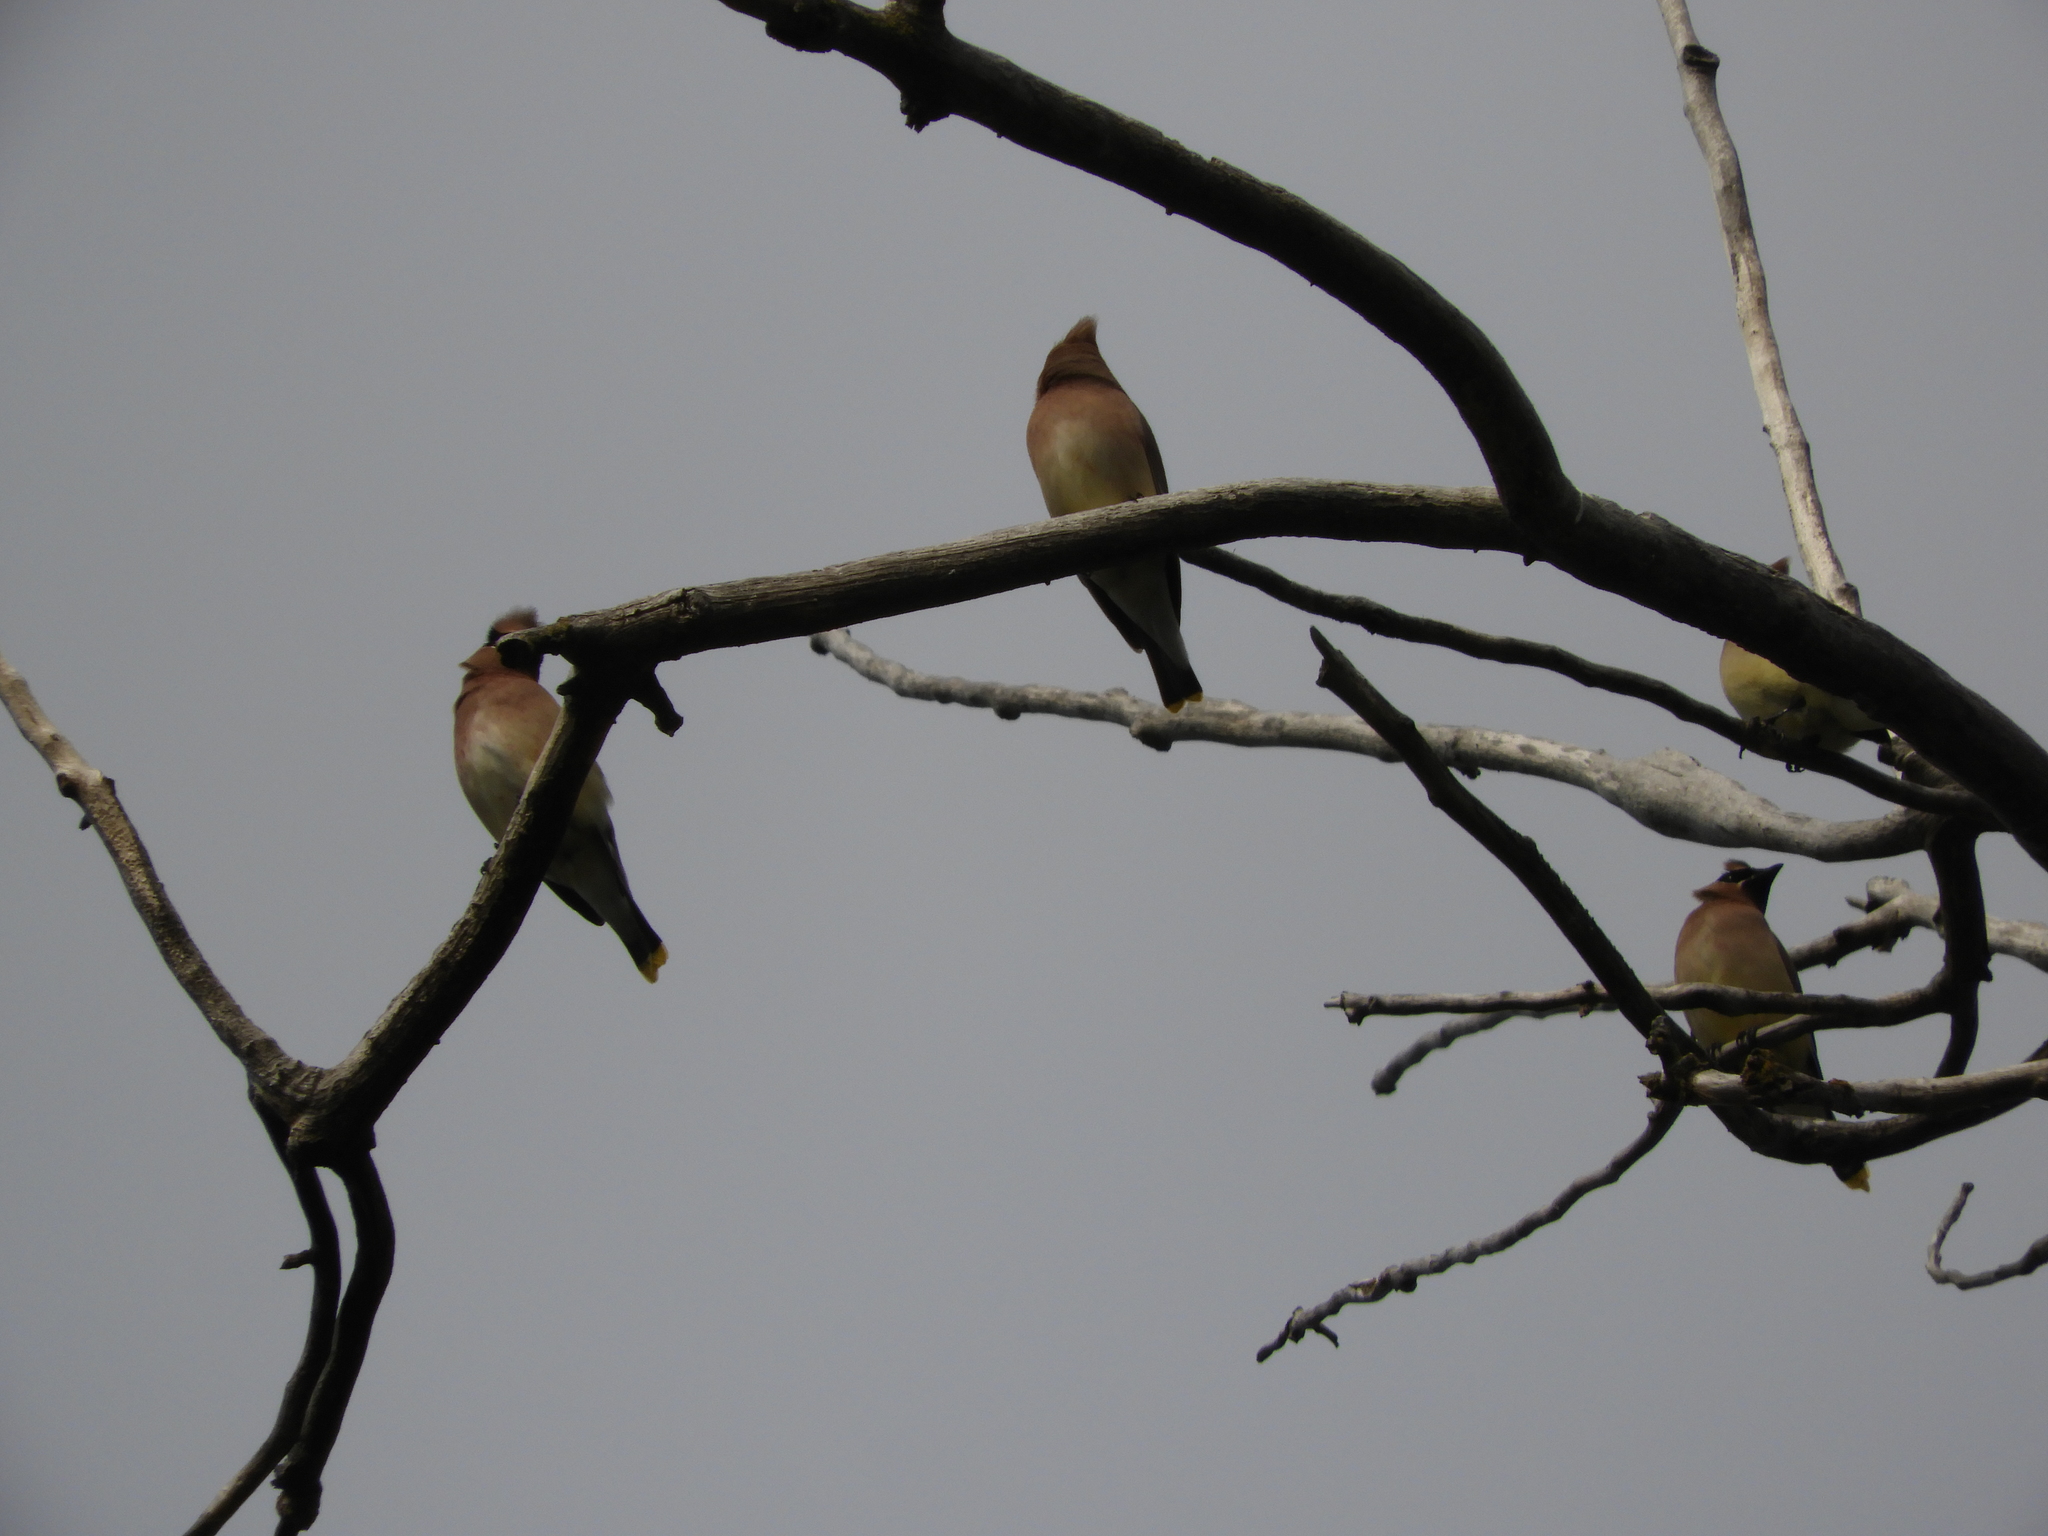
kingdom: Animalia
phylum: Chordata
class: Aves
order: Passeriformes
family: Bombycillidae
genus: Bombycilla
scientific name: Bombycilla cedrorum
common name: Cedar waxwing
